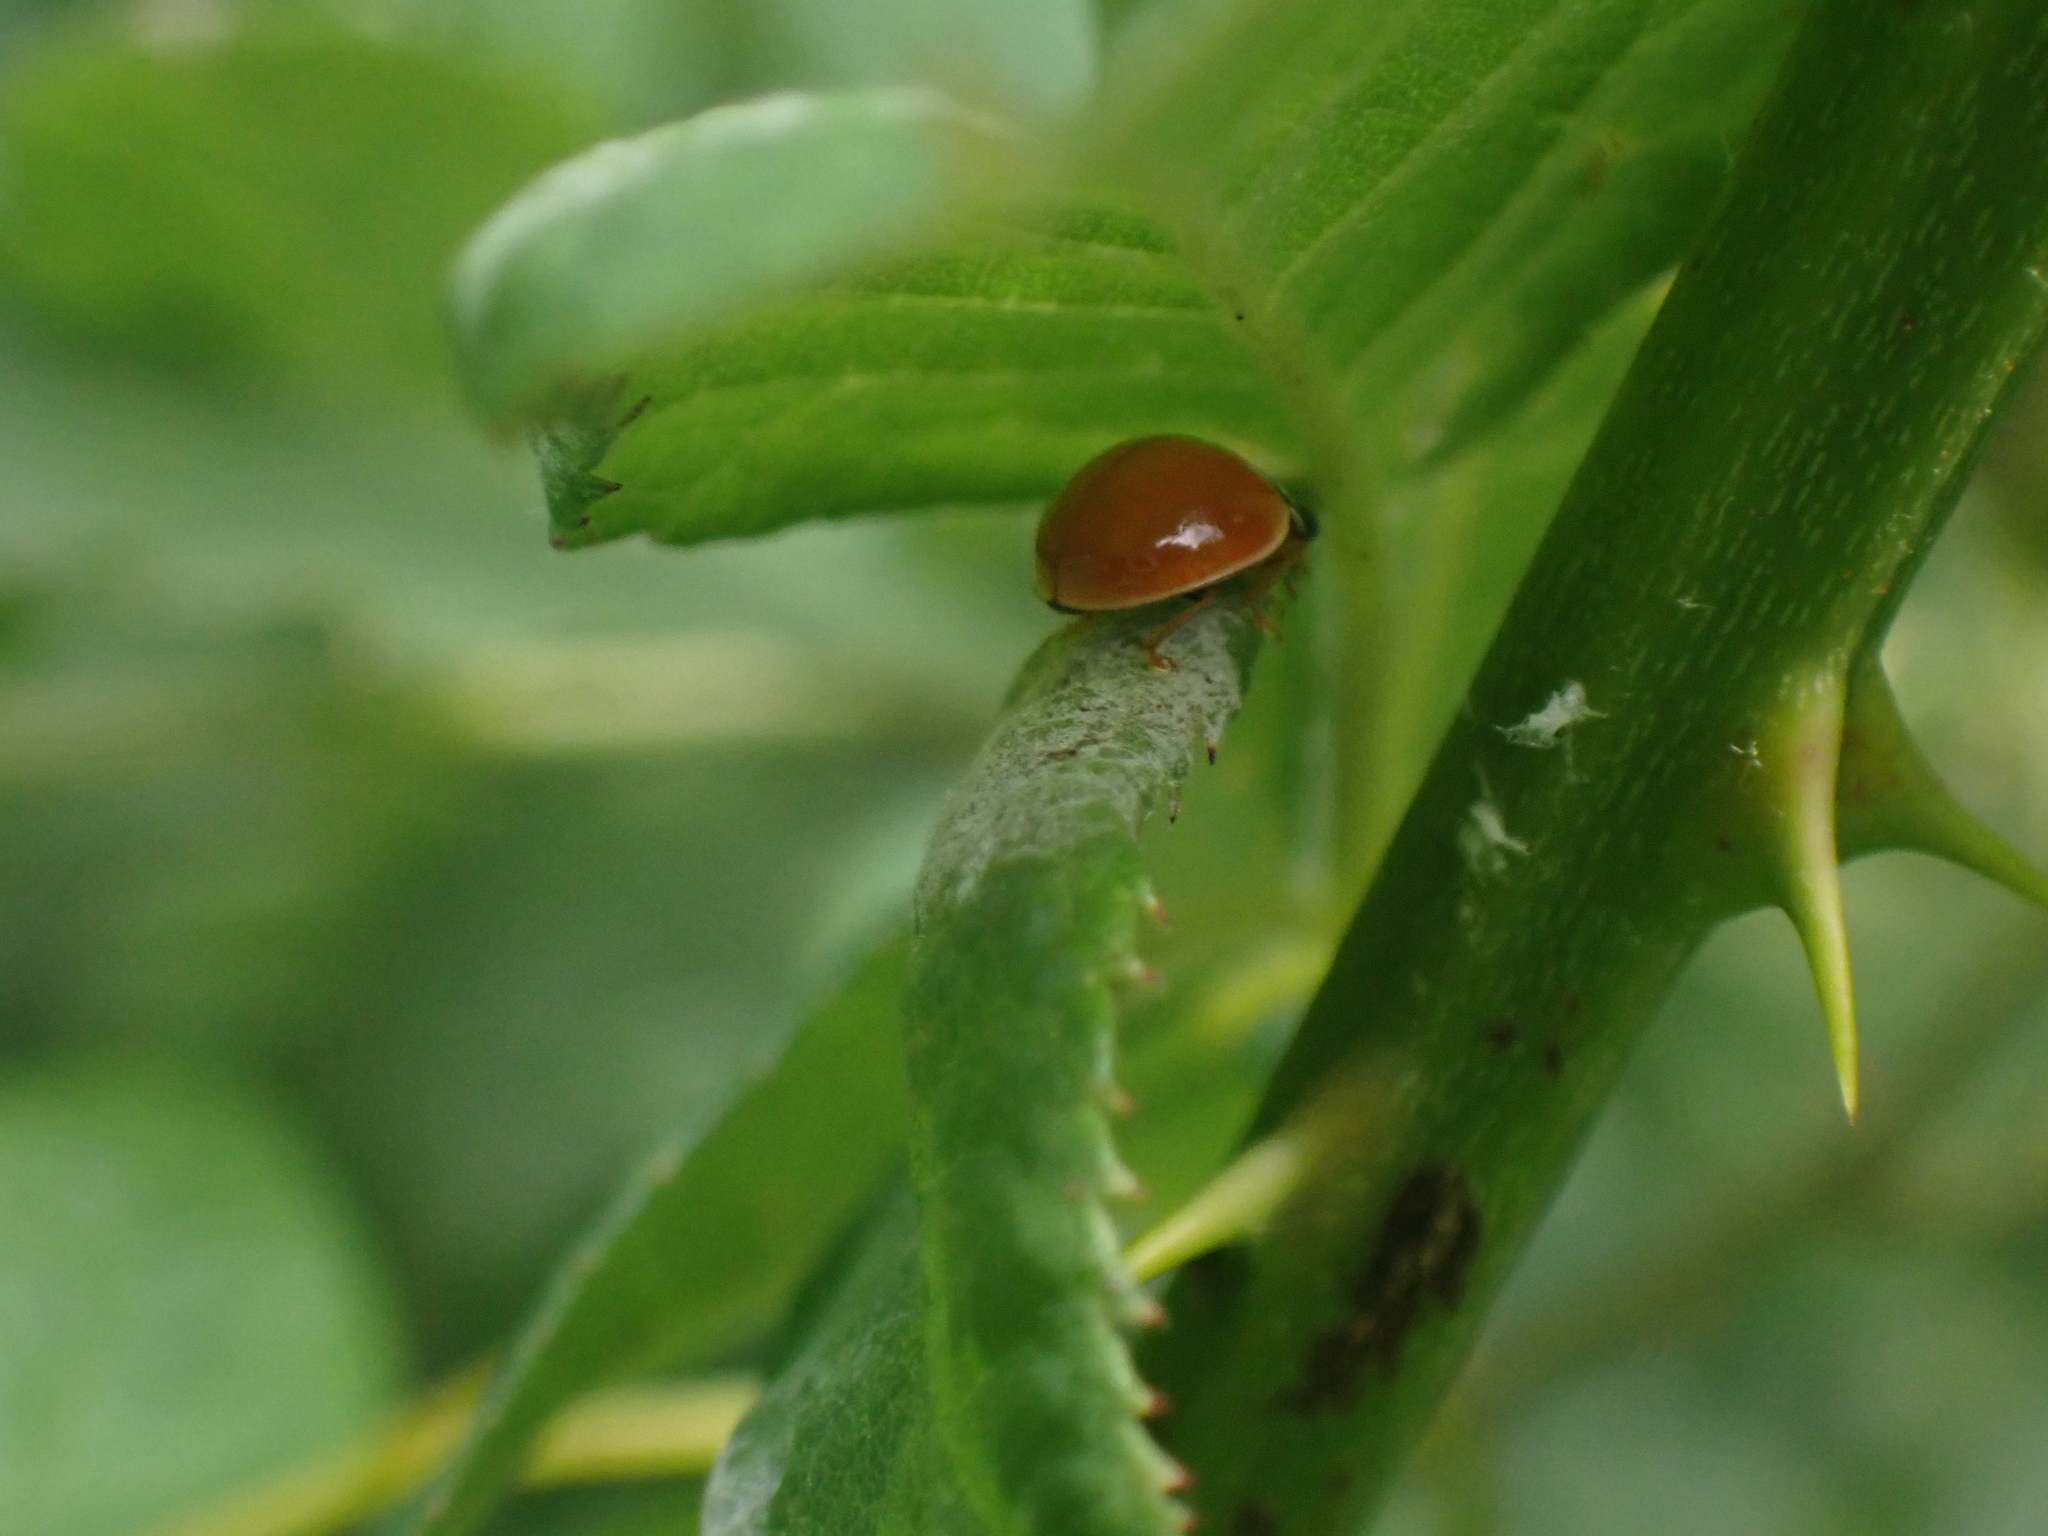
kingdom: Animalia
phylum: Arthropoda
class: Insecta
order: Coleoptera
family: Coccinellidae
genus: Cycloneda
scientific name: Cycloneda munda
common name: Polished lady beetle
